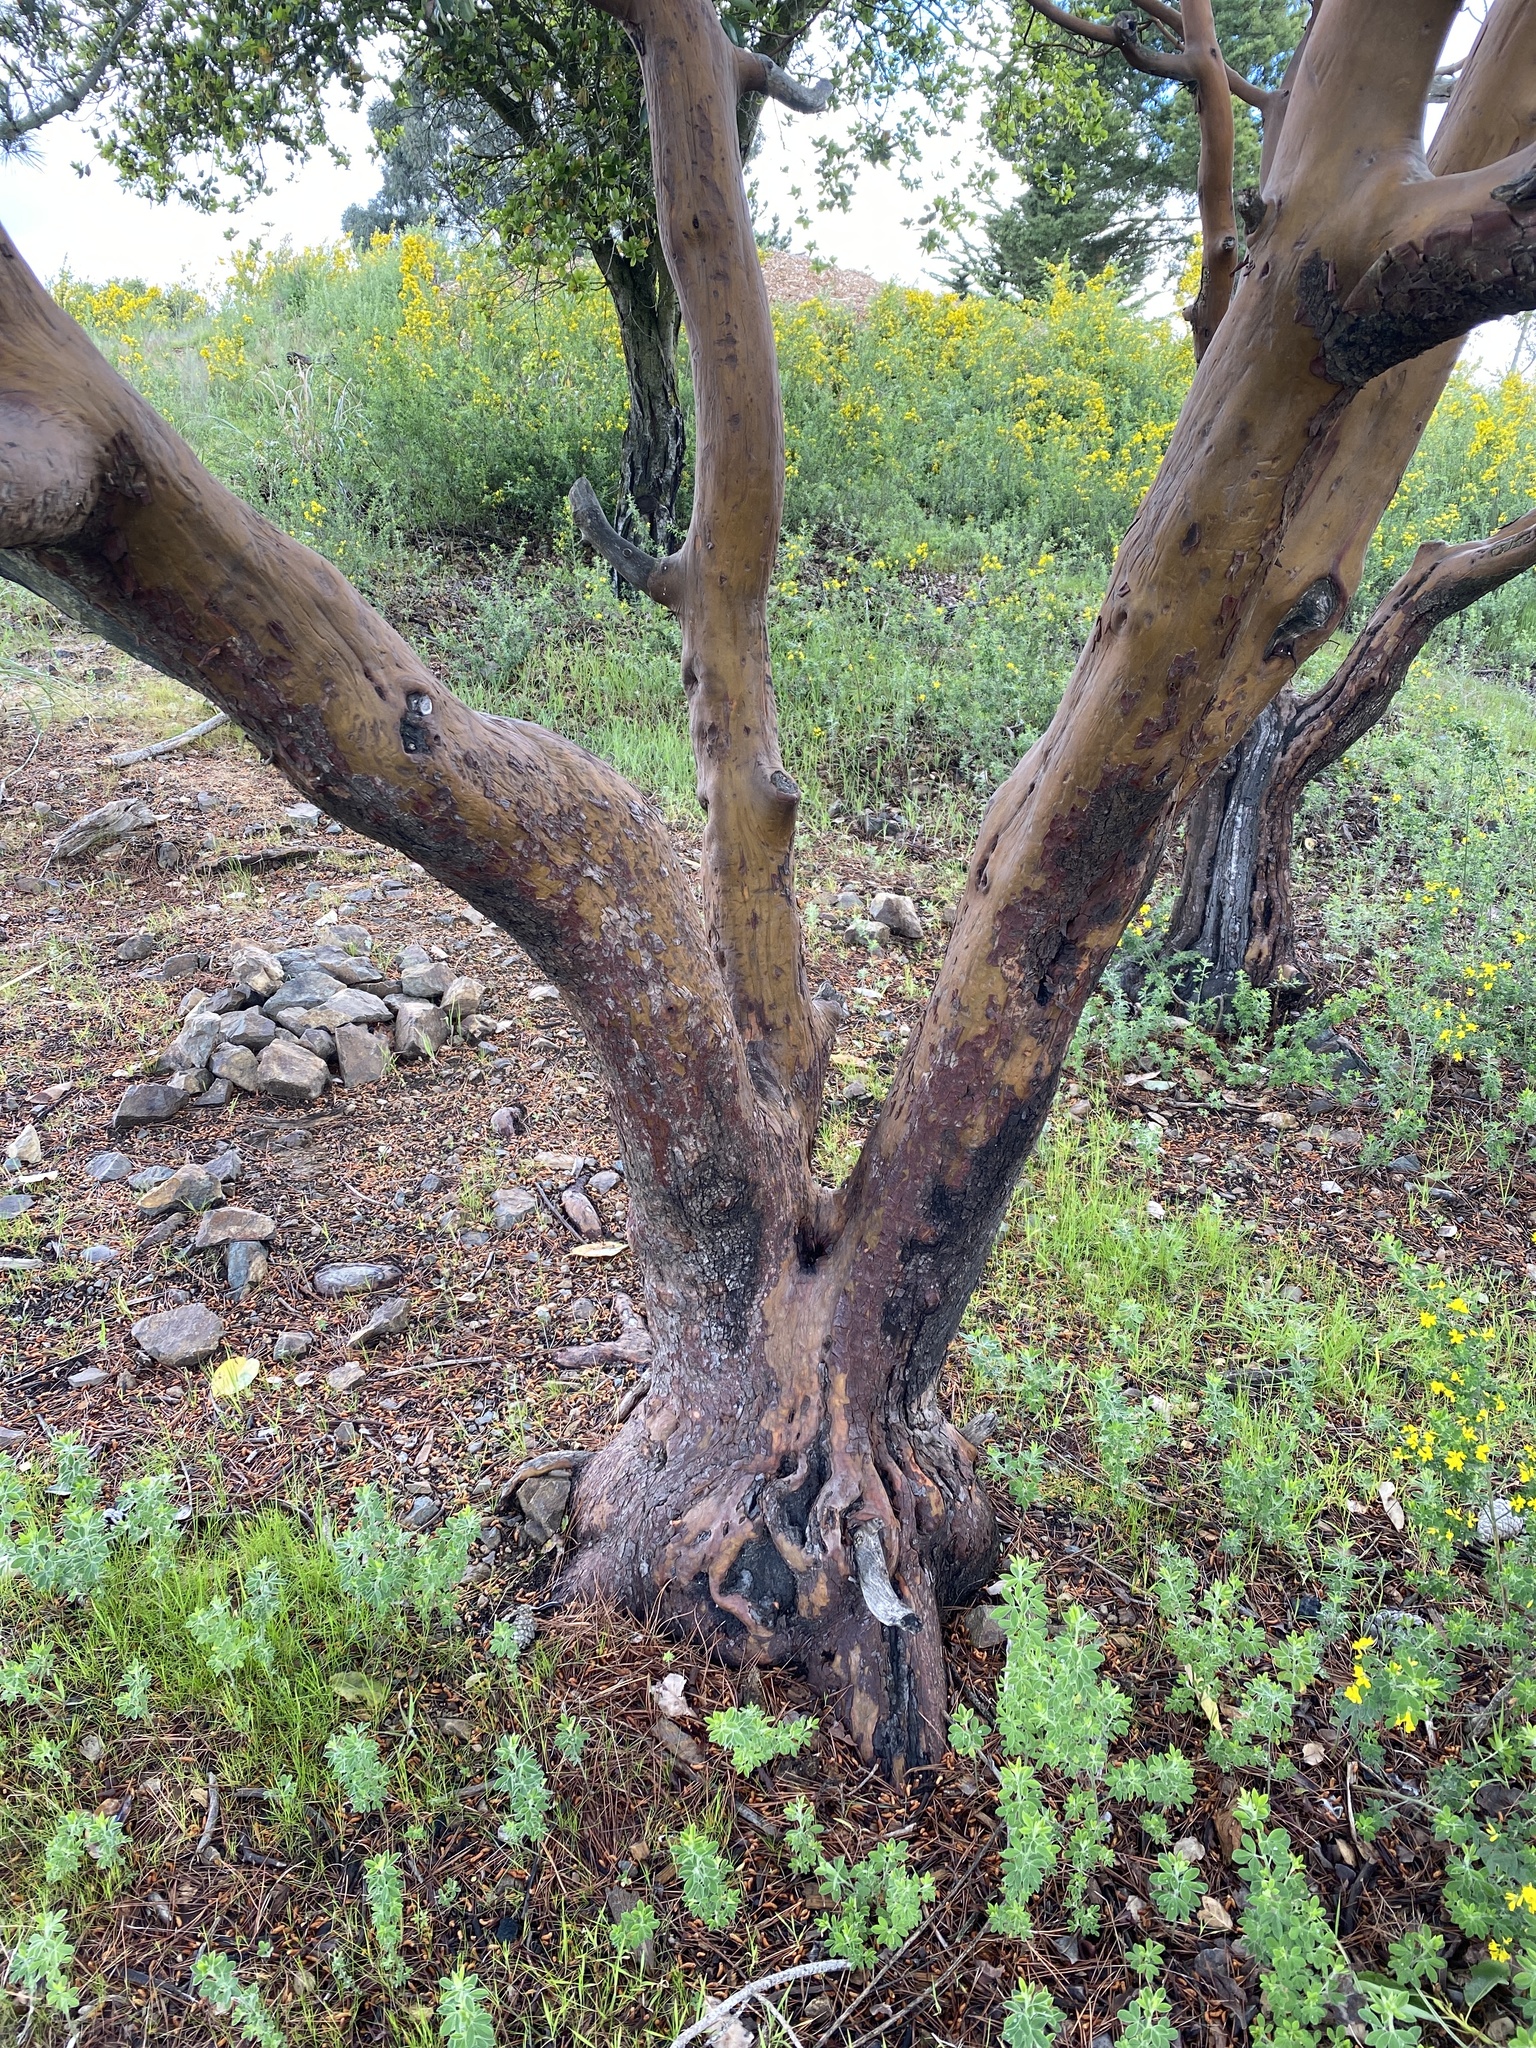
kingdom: Plantae
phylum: Tracheophyta
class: Magnoliopsida
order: Ericales
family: Ericaceae
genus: Arbutus
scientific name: Arbutus menziesii
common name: Pacific madrone
